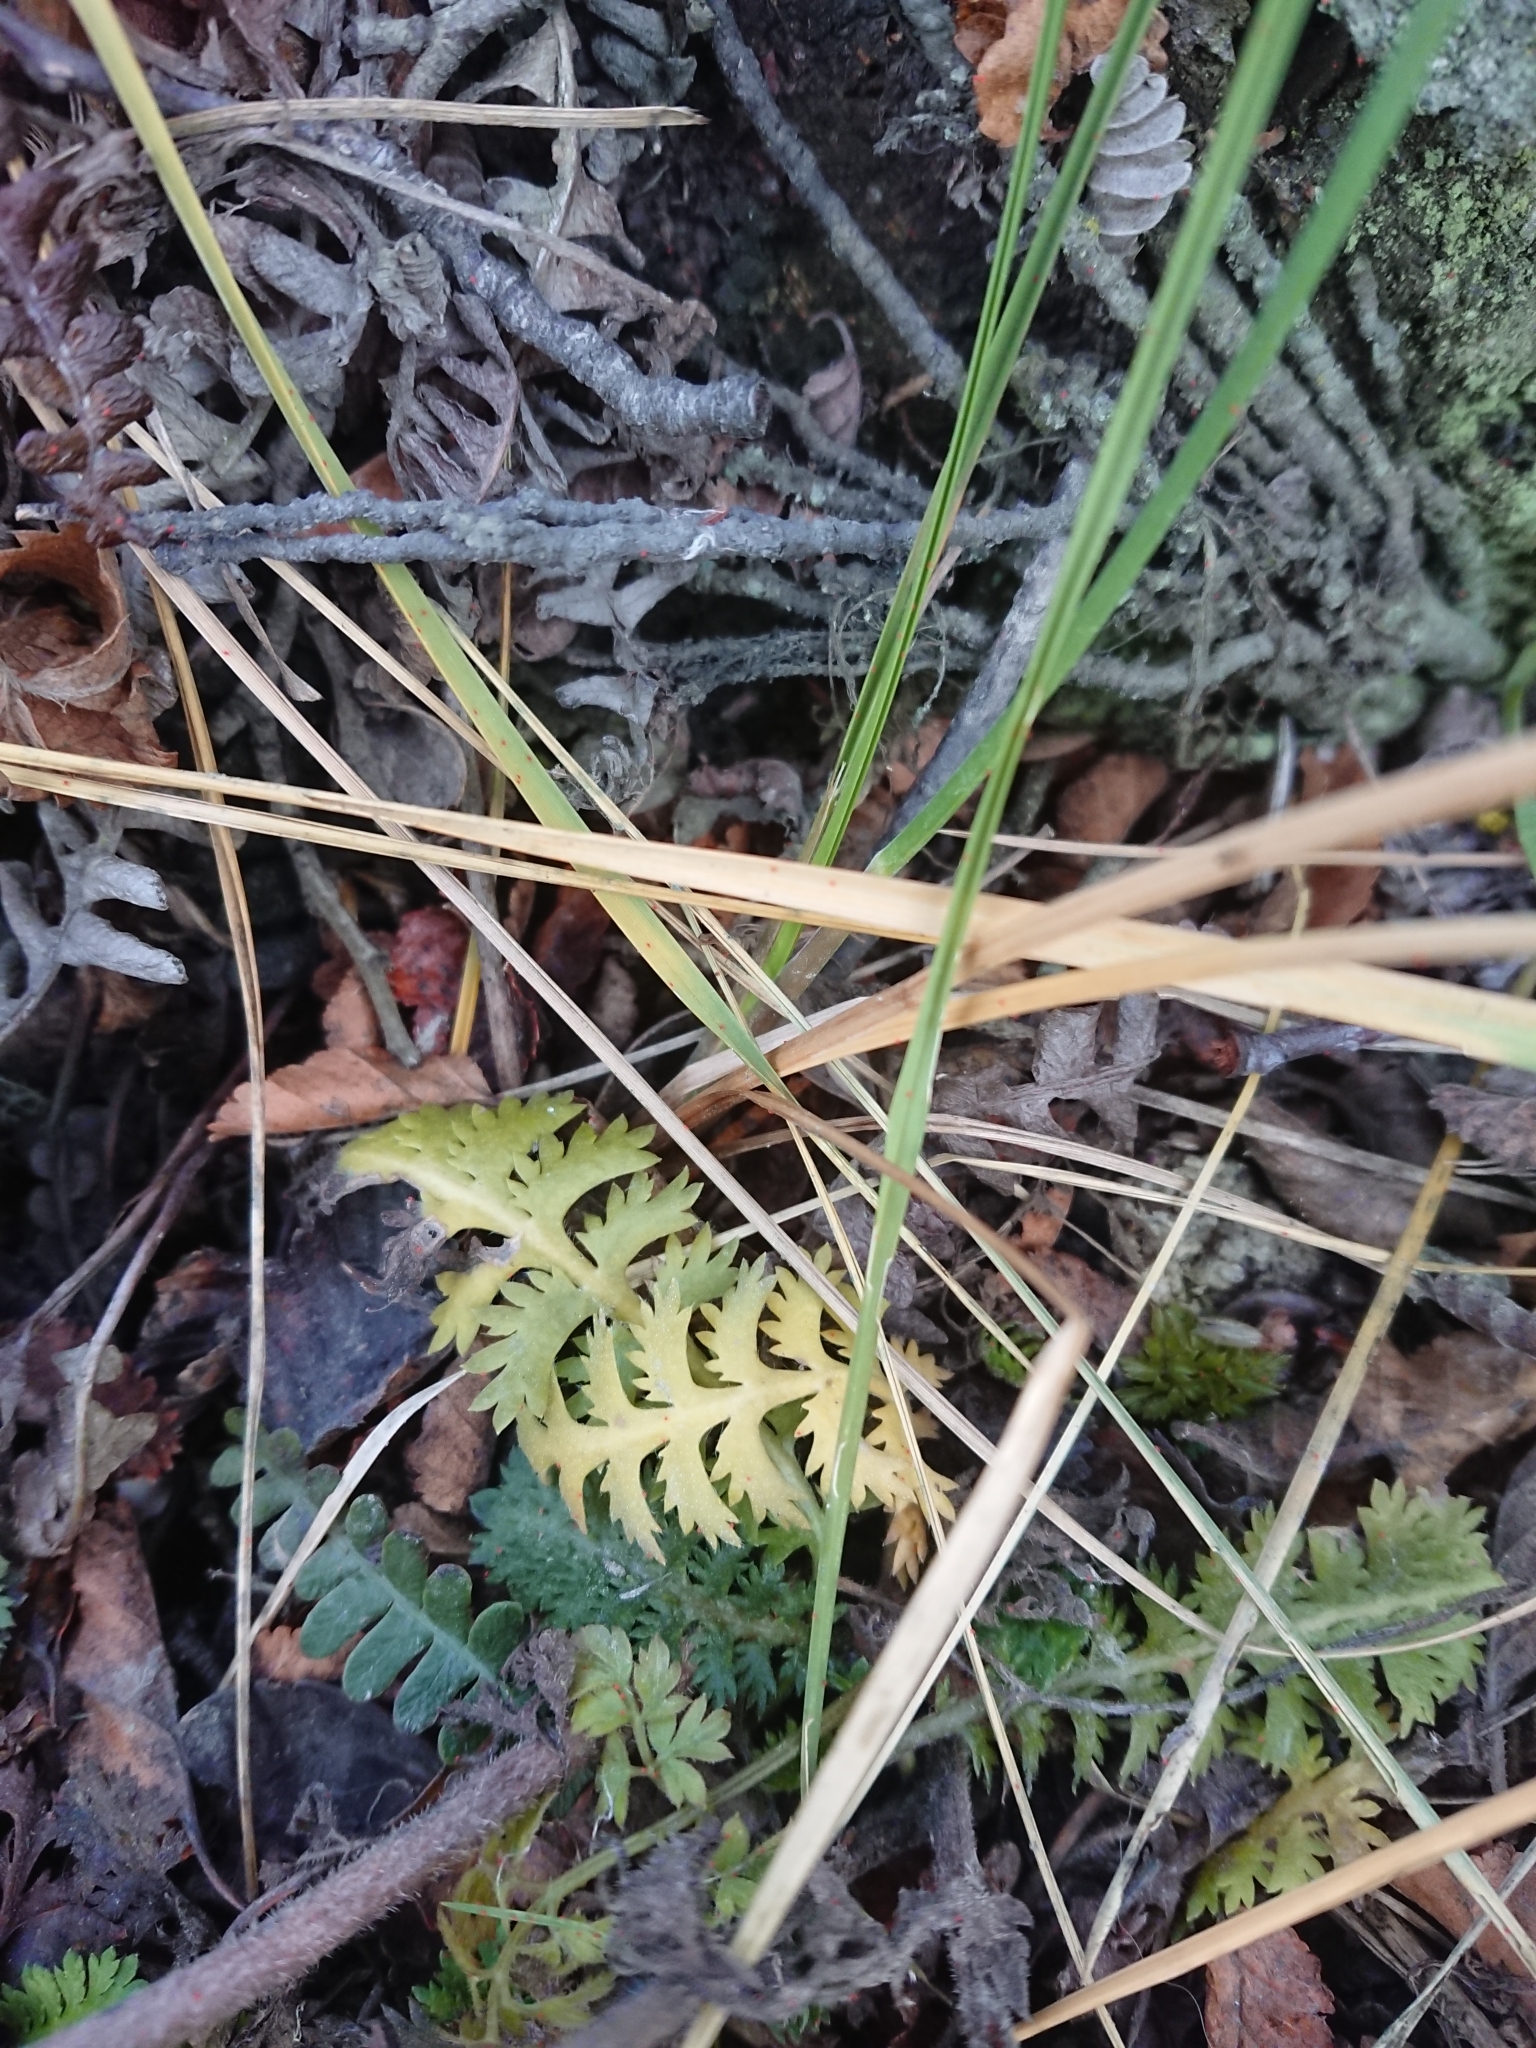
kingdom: Plantae
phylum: Tracheophyta
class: Magnoliopsida
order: Asterales
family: Asteraceae
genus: Leptinella
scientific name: Leptinella scariosa
